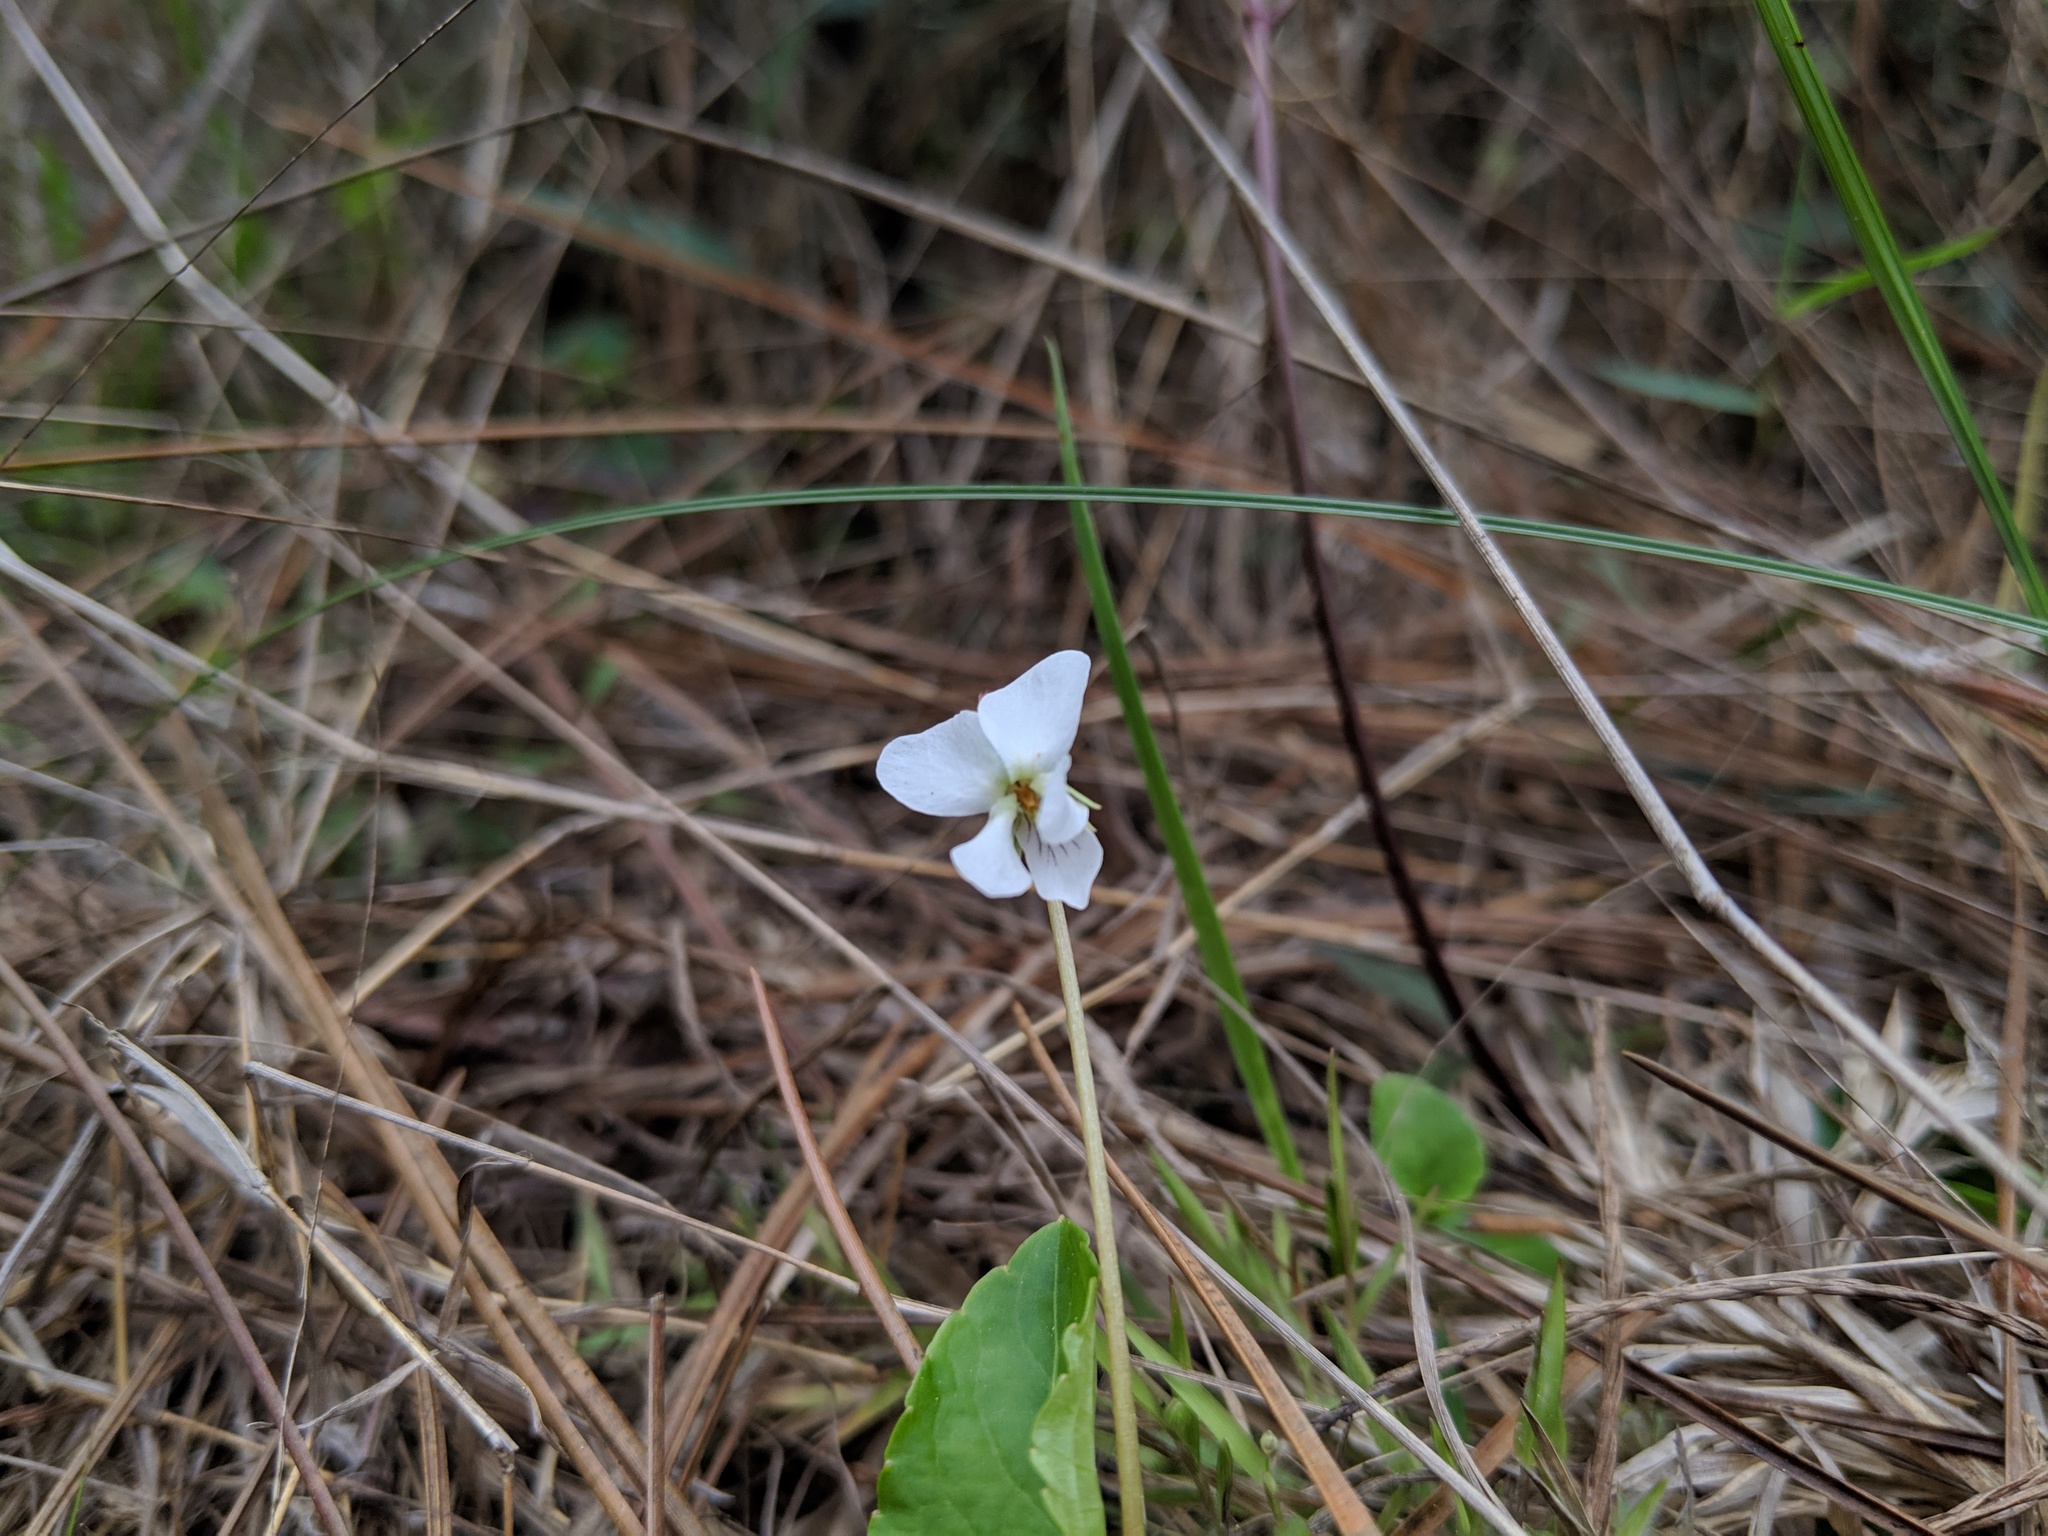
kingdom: Plantae
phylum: Tracheophyta
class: Magnoliopsida
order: Malpighiales
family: Violaceae
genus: Viola
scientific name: Viola primulifolia
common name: Primrose-leaf violet
